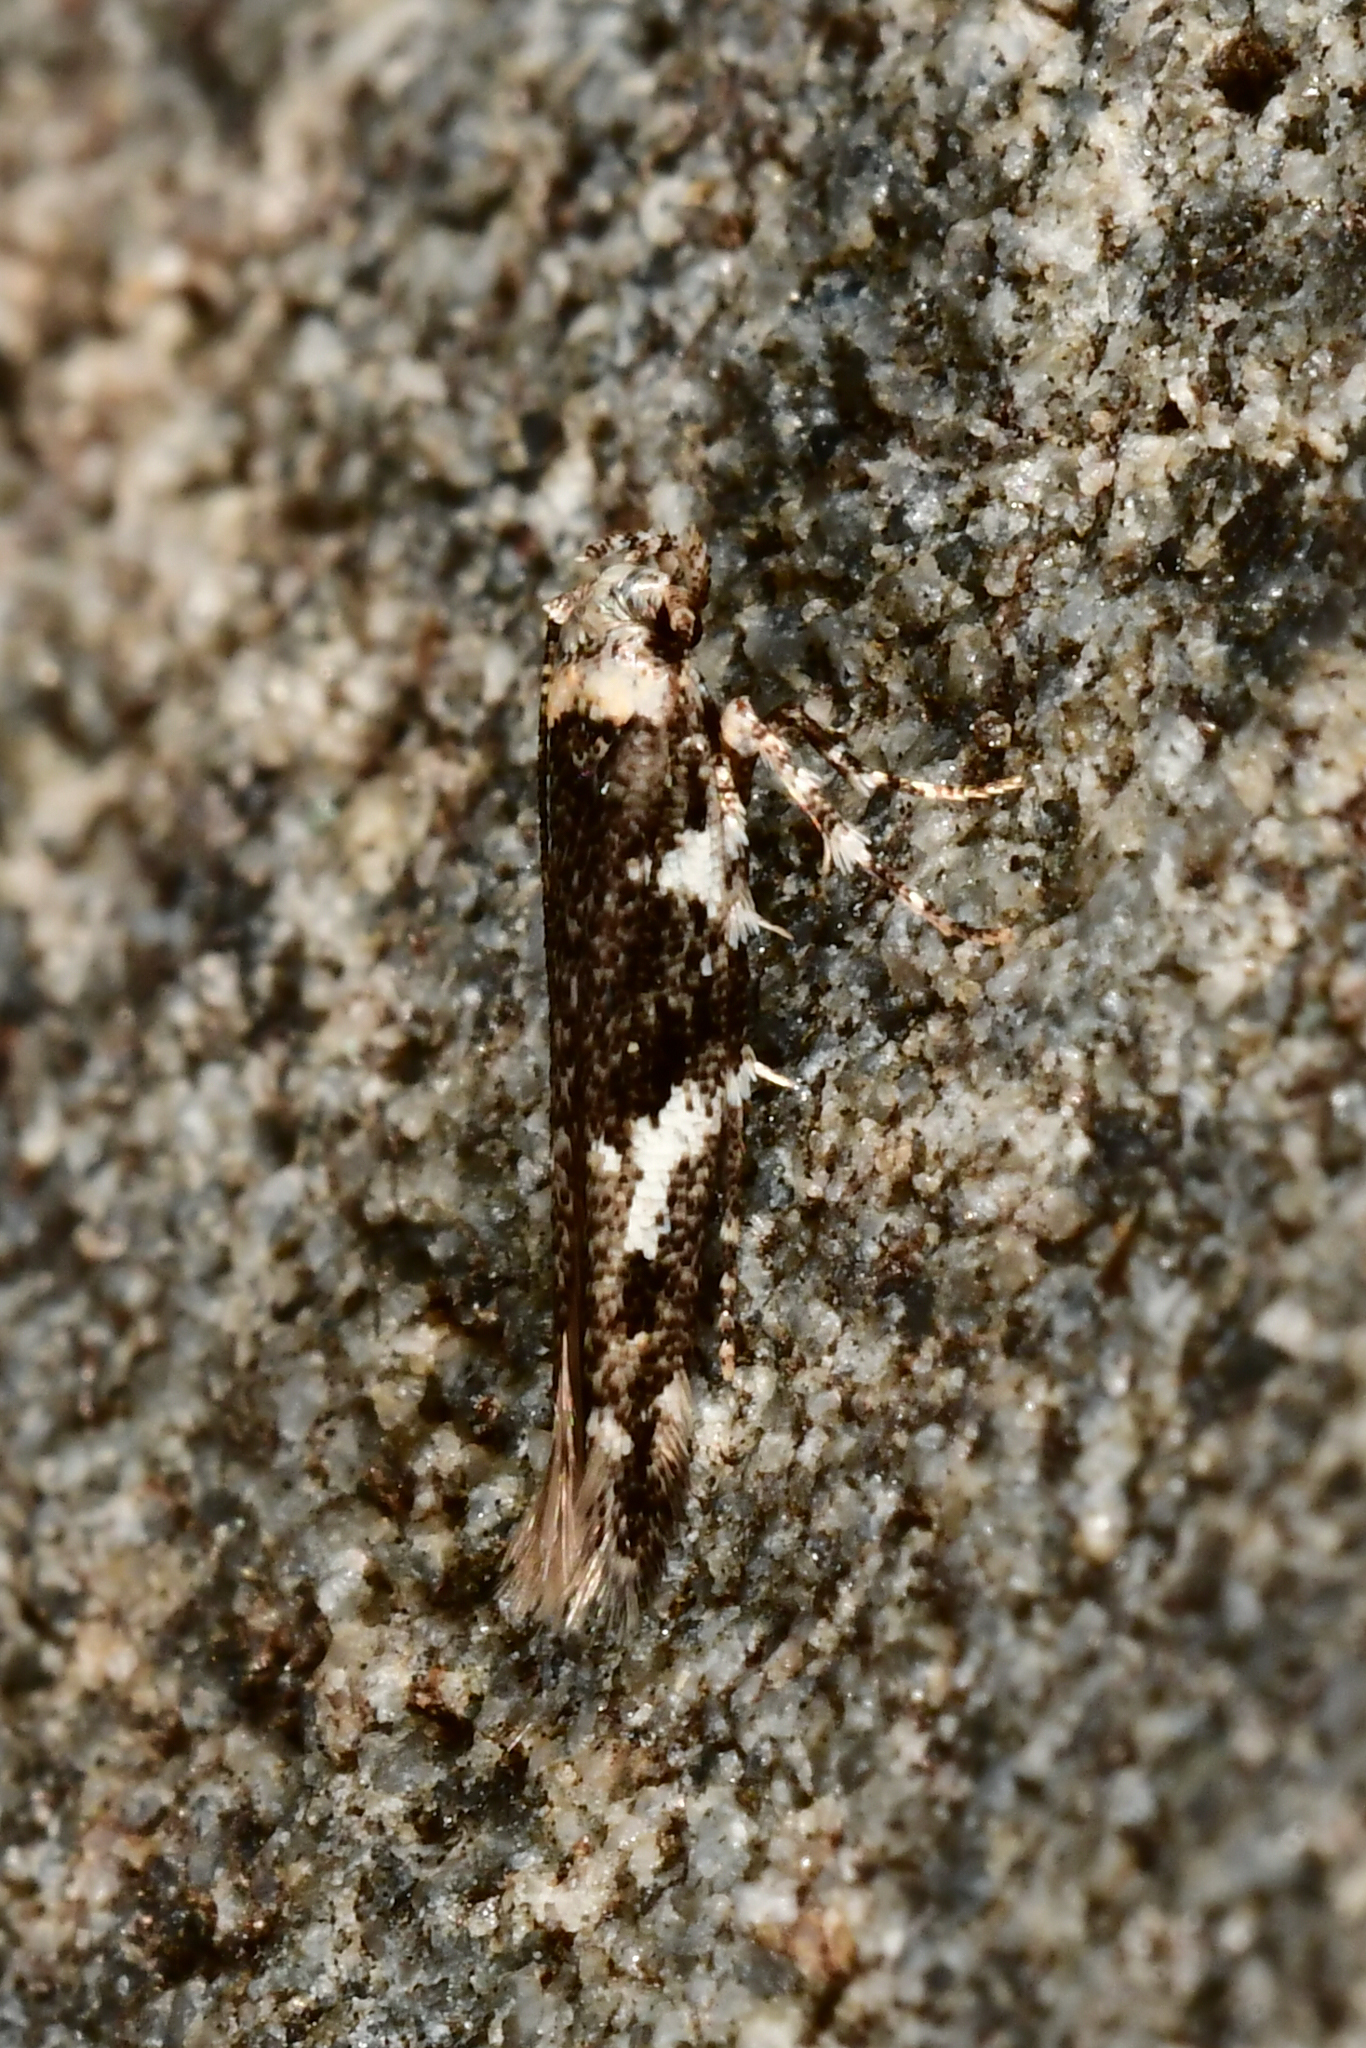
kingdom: Animalia
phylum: Arthropoda
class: Insecta
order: Lepidoptera
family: Cosmopterigidae
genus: Pyroderces
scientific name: Pyroderces deamatella
